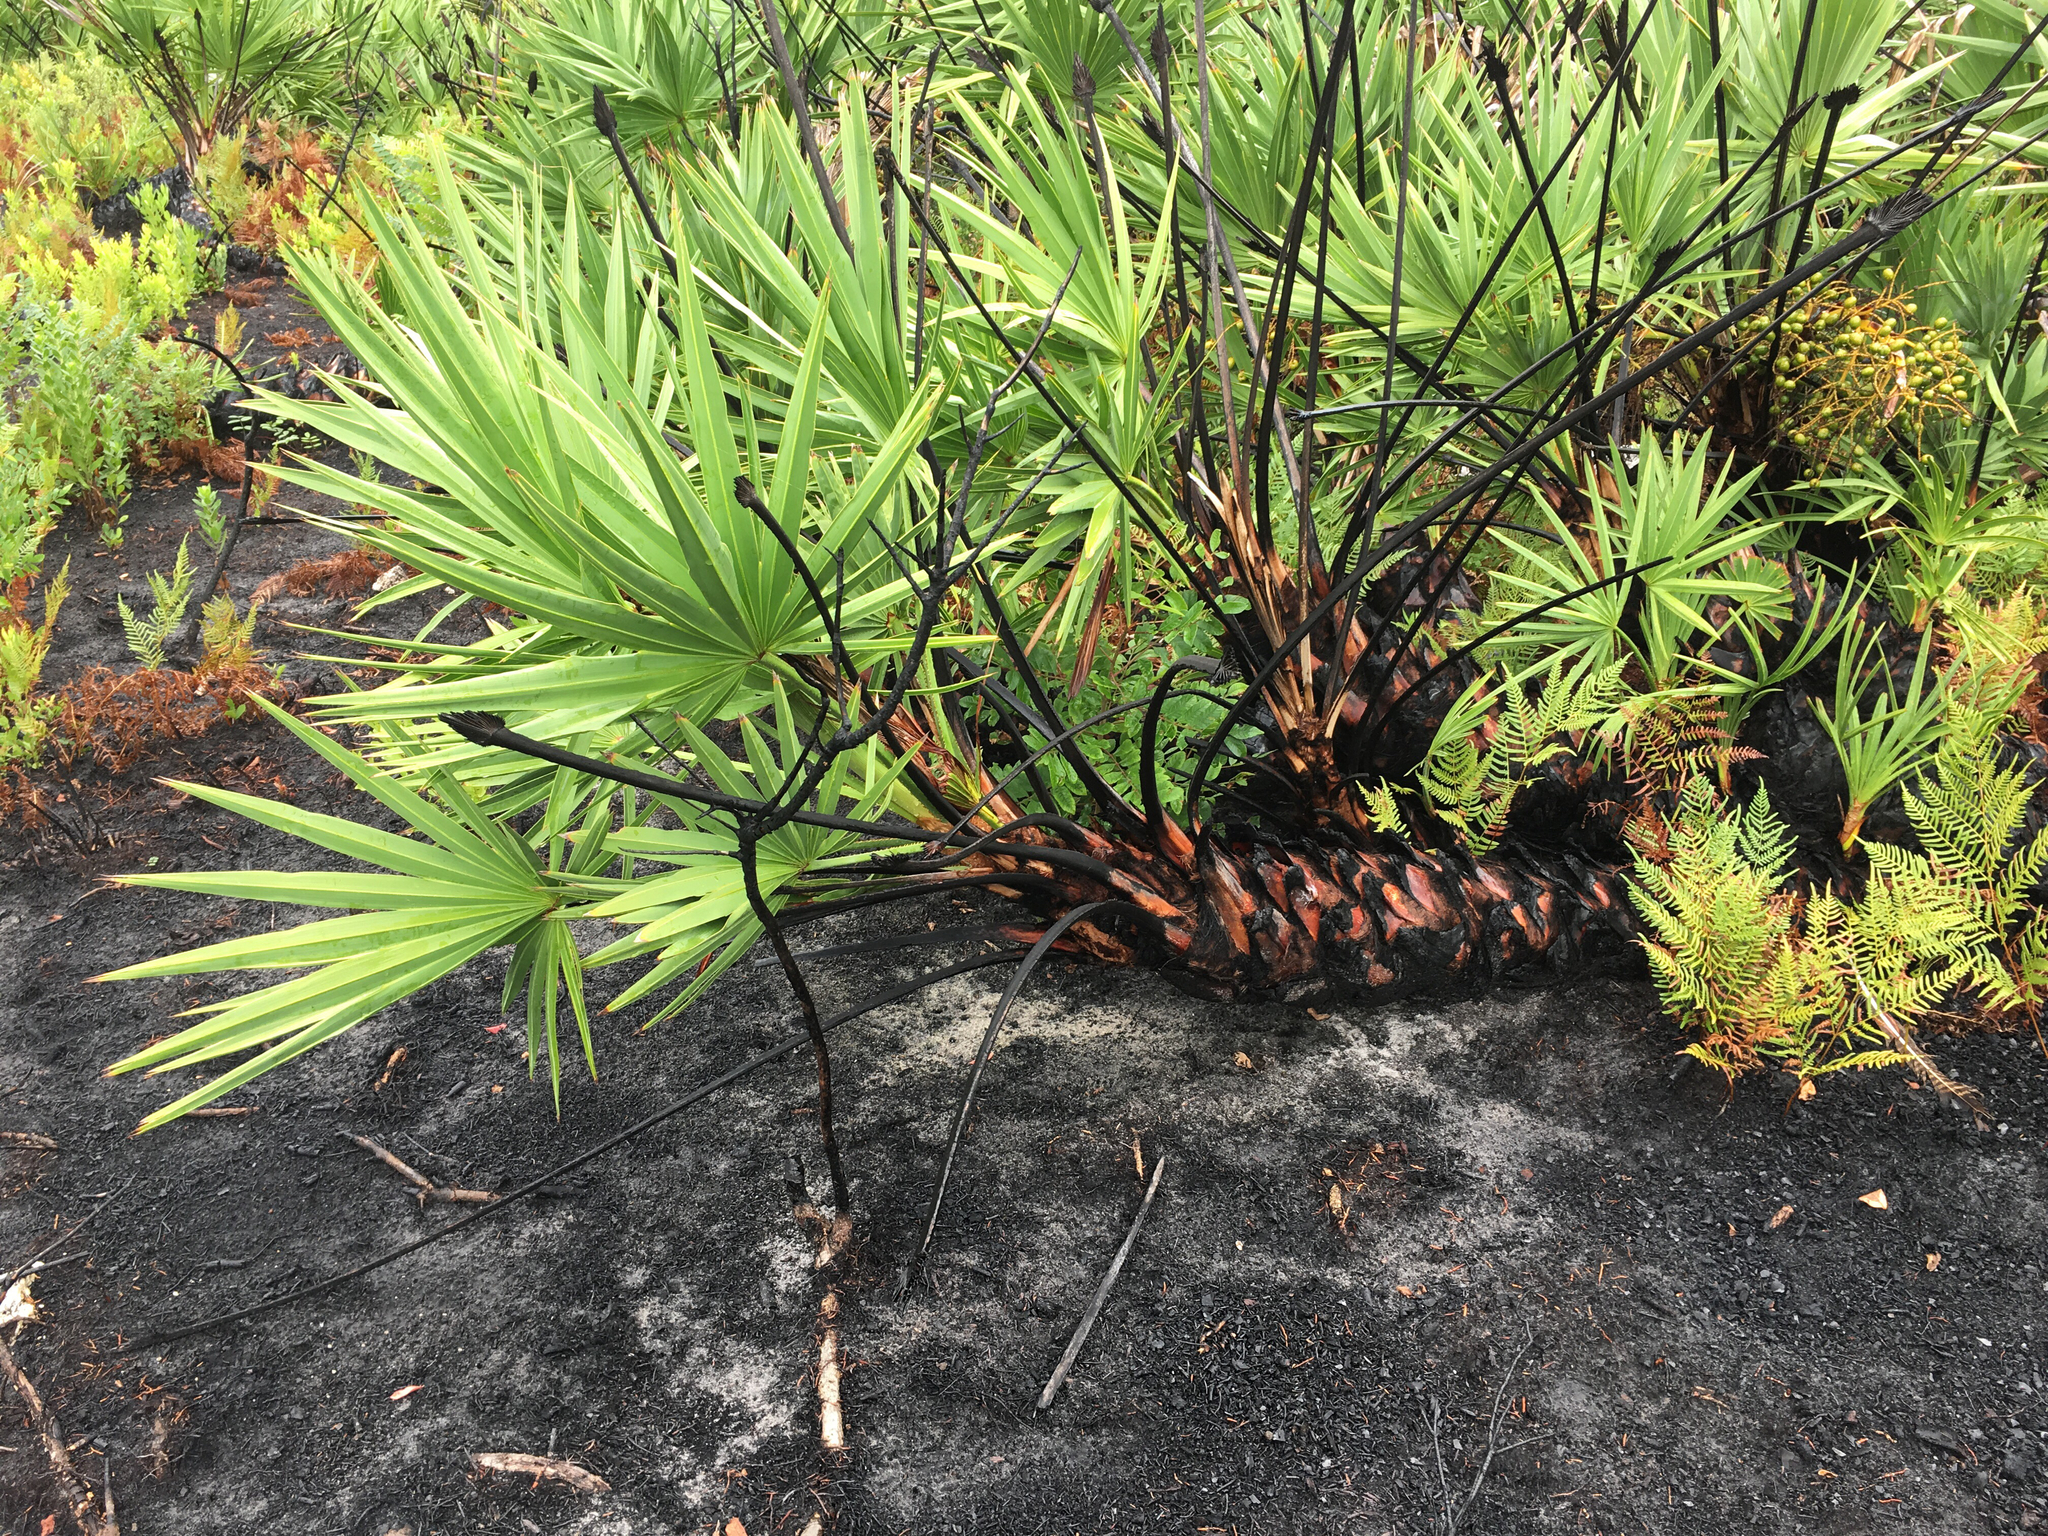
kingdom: Plantae
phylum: Tracheophyta
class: Liliopsida
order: Arecales
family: Arecaceae
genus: Serenoa
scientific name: Serenoa repens
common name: Saw-palmetto
